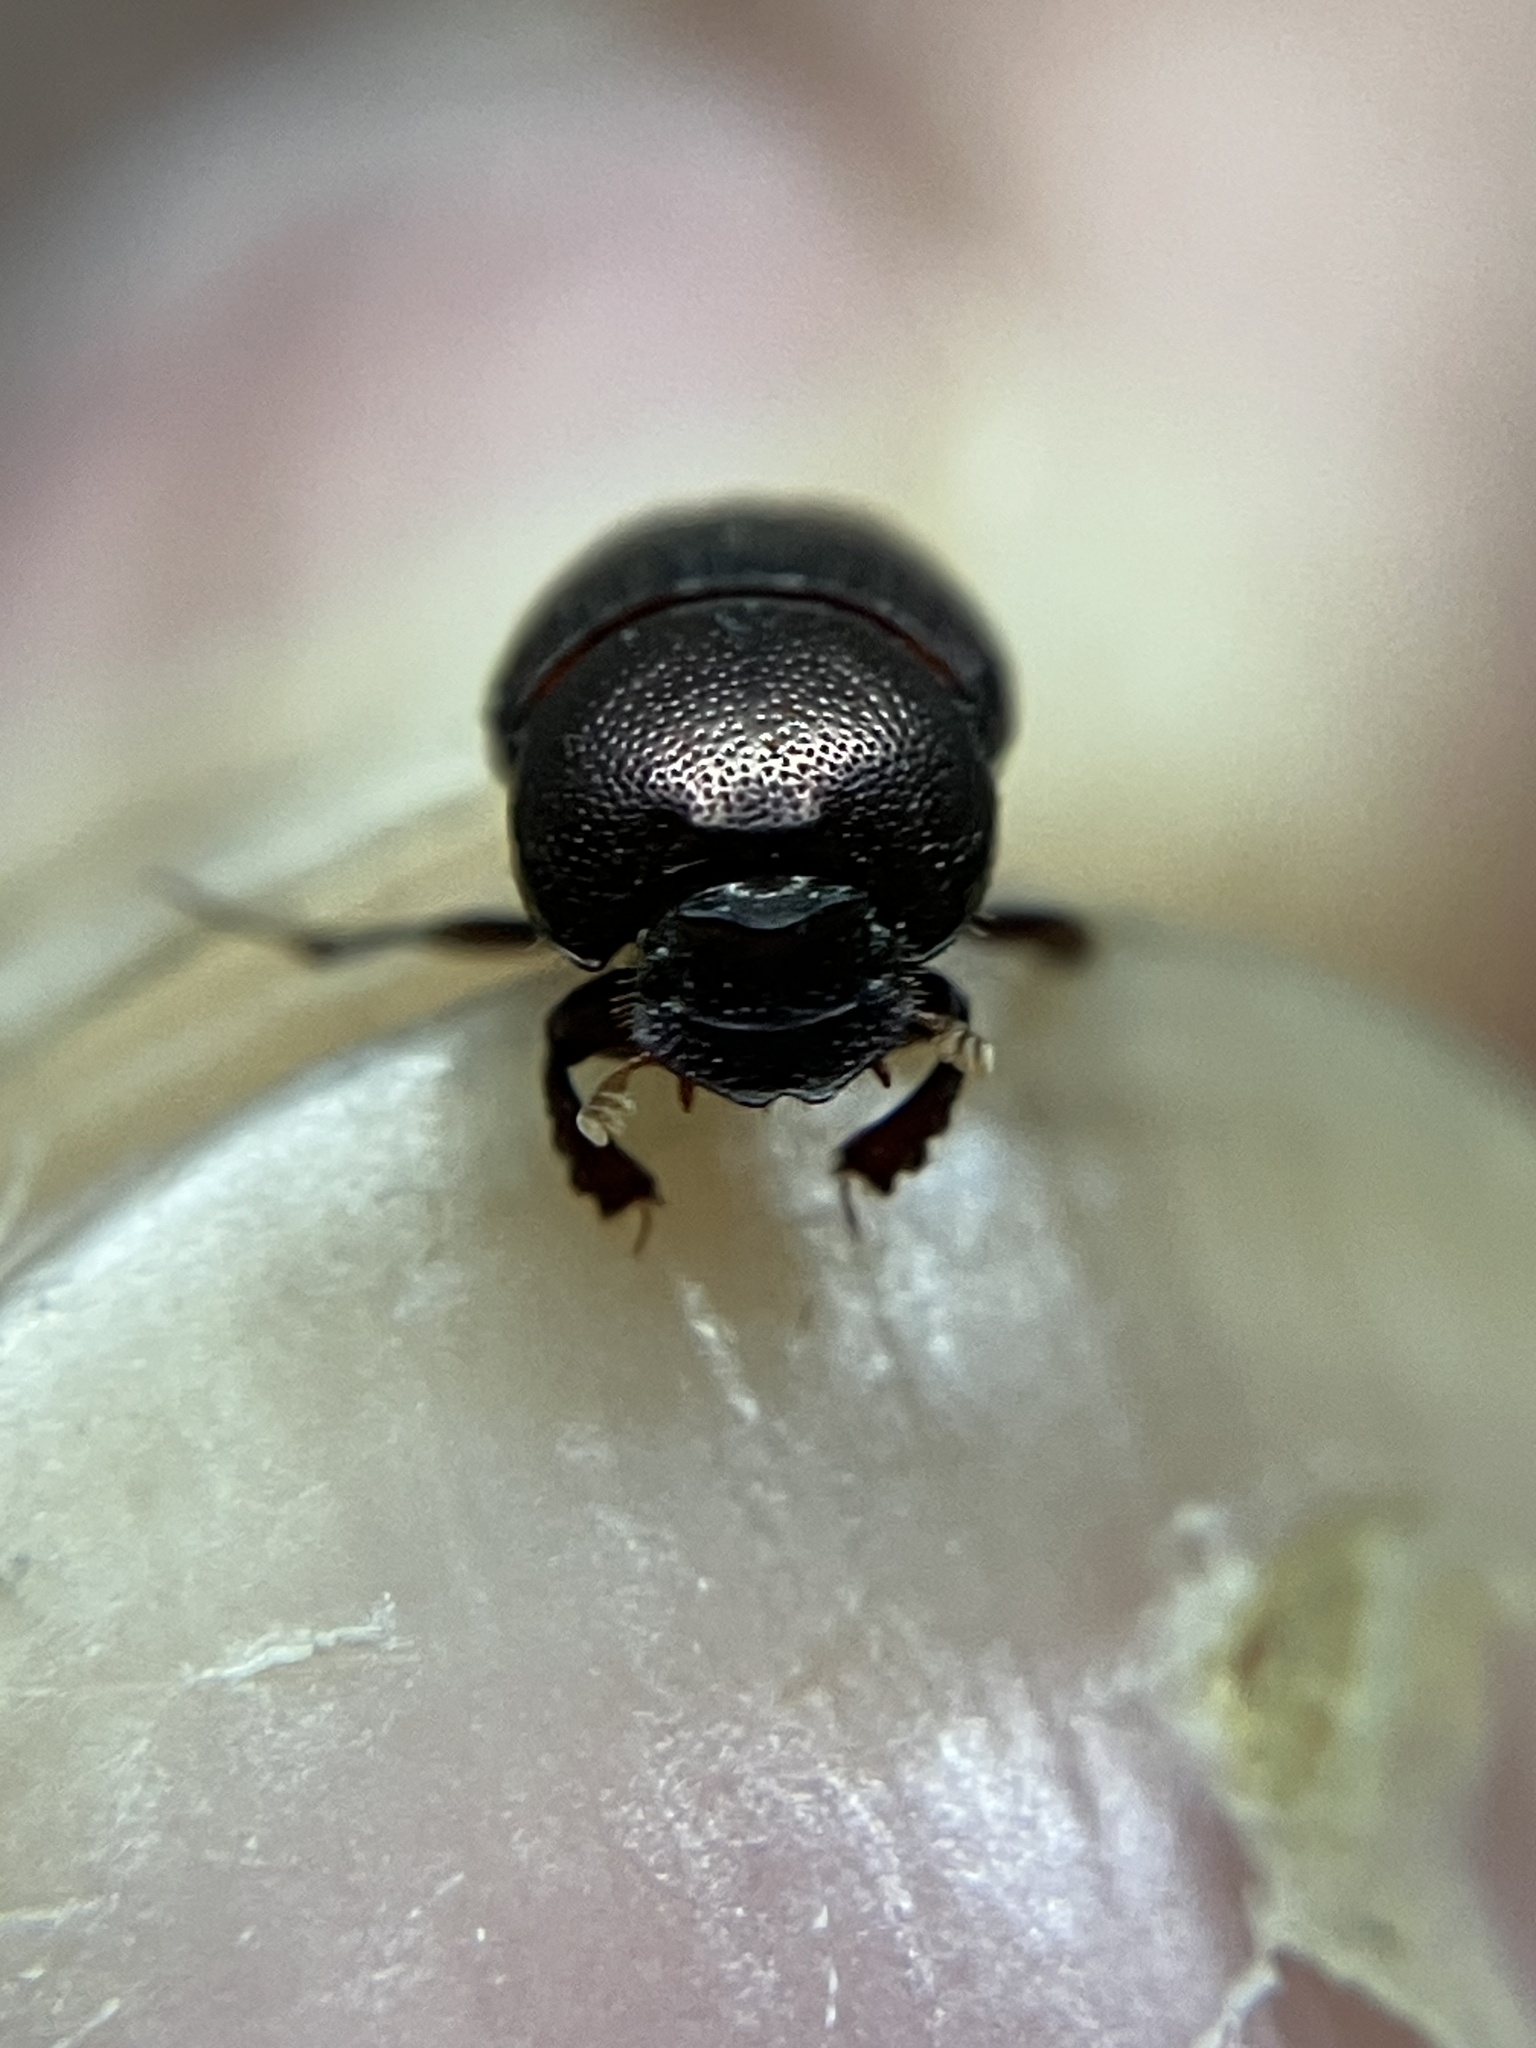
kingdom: Animalia
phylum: Arthropoda
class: Insecta
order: Coleoptera
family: Scarabaeidae
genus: Onthophagus
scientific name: Onthophagus favrei
